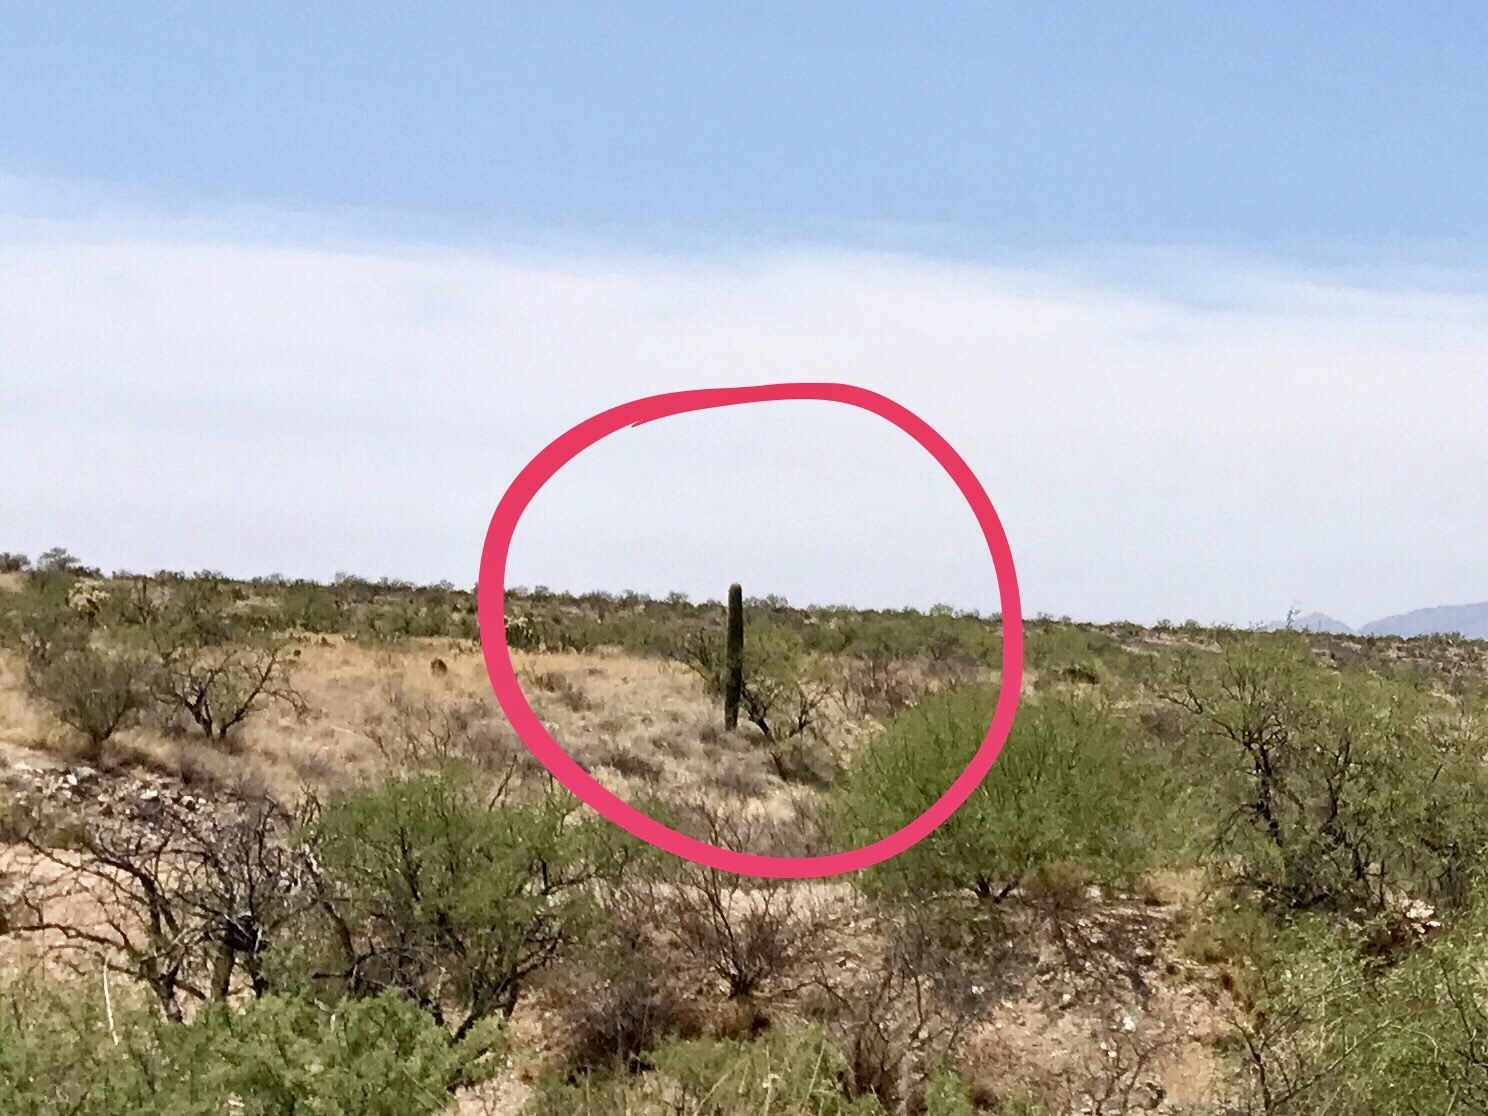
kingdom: Plantae
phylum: Tracheophyta
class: Magnoliopsida
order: Caryophyllales
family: Cactaceae
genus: Carnegiea
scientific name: Carnegiea gigantea
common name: Saguaro
